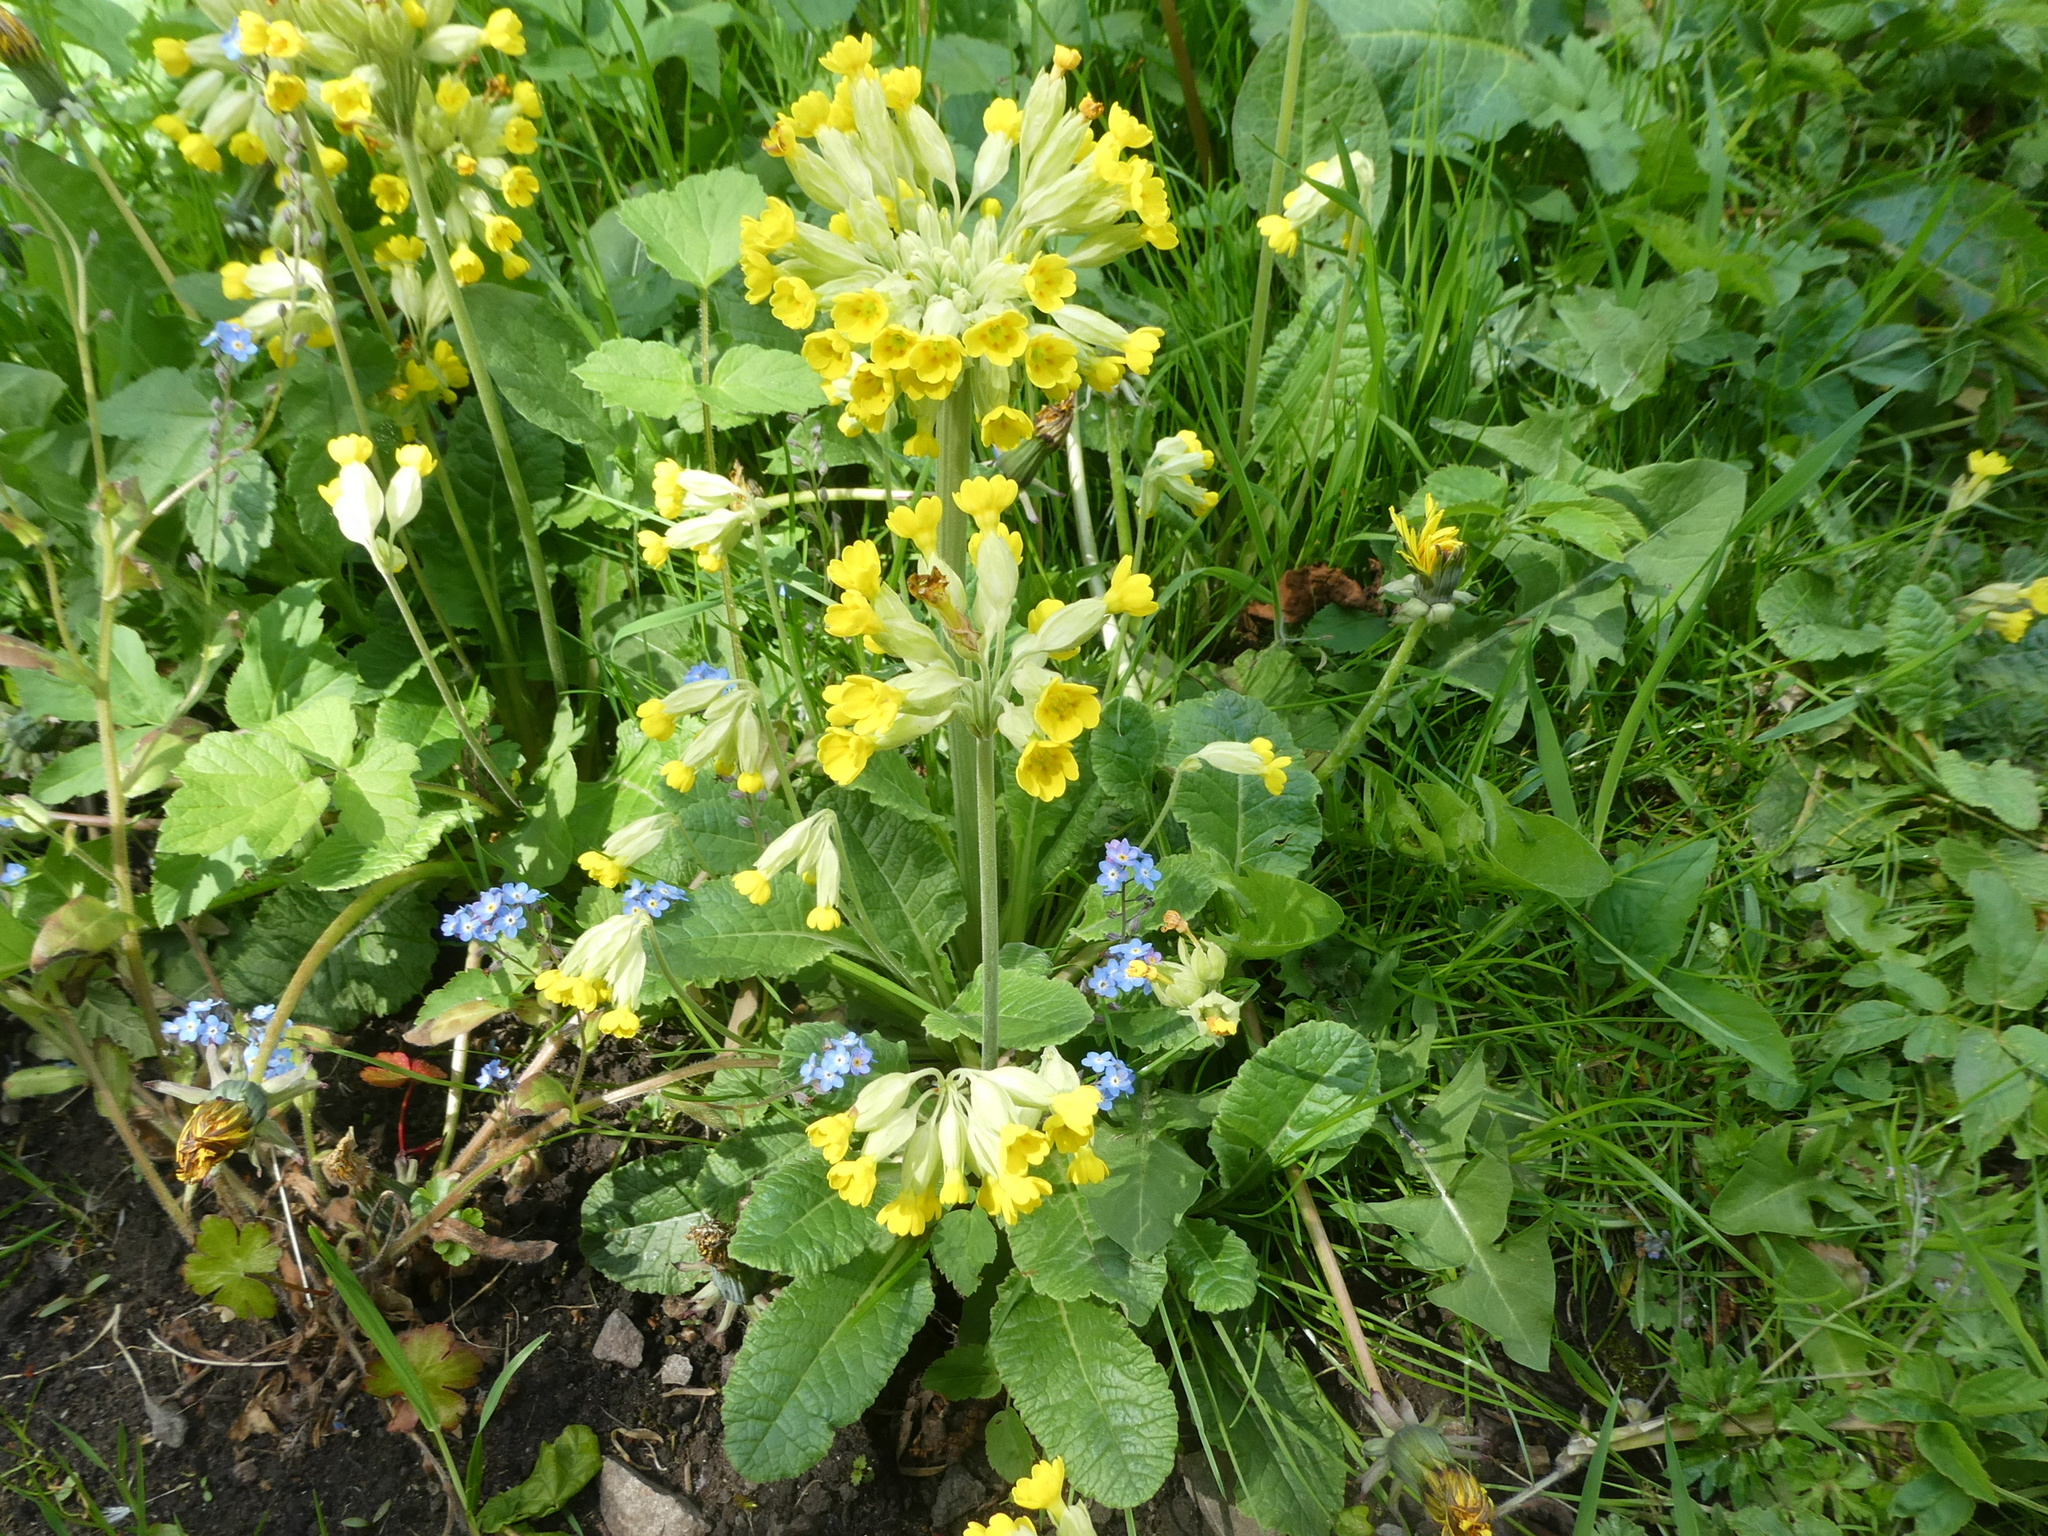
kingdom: Plantae
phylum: Tracheophyta
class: Magnoliopsida
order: Ericales
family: Primulaceae
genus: Primula
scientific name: Primula veris
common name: Cowslip
